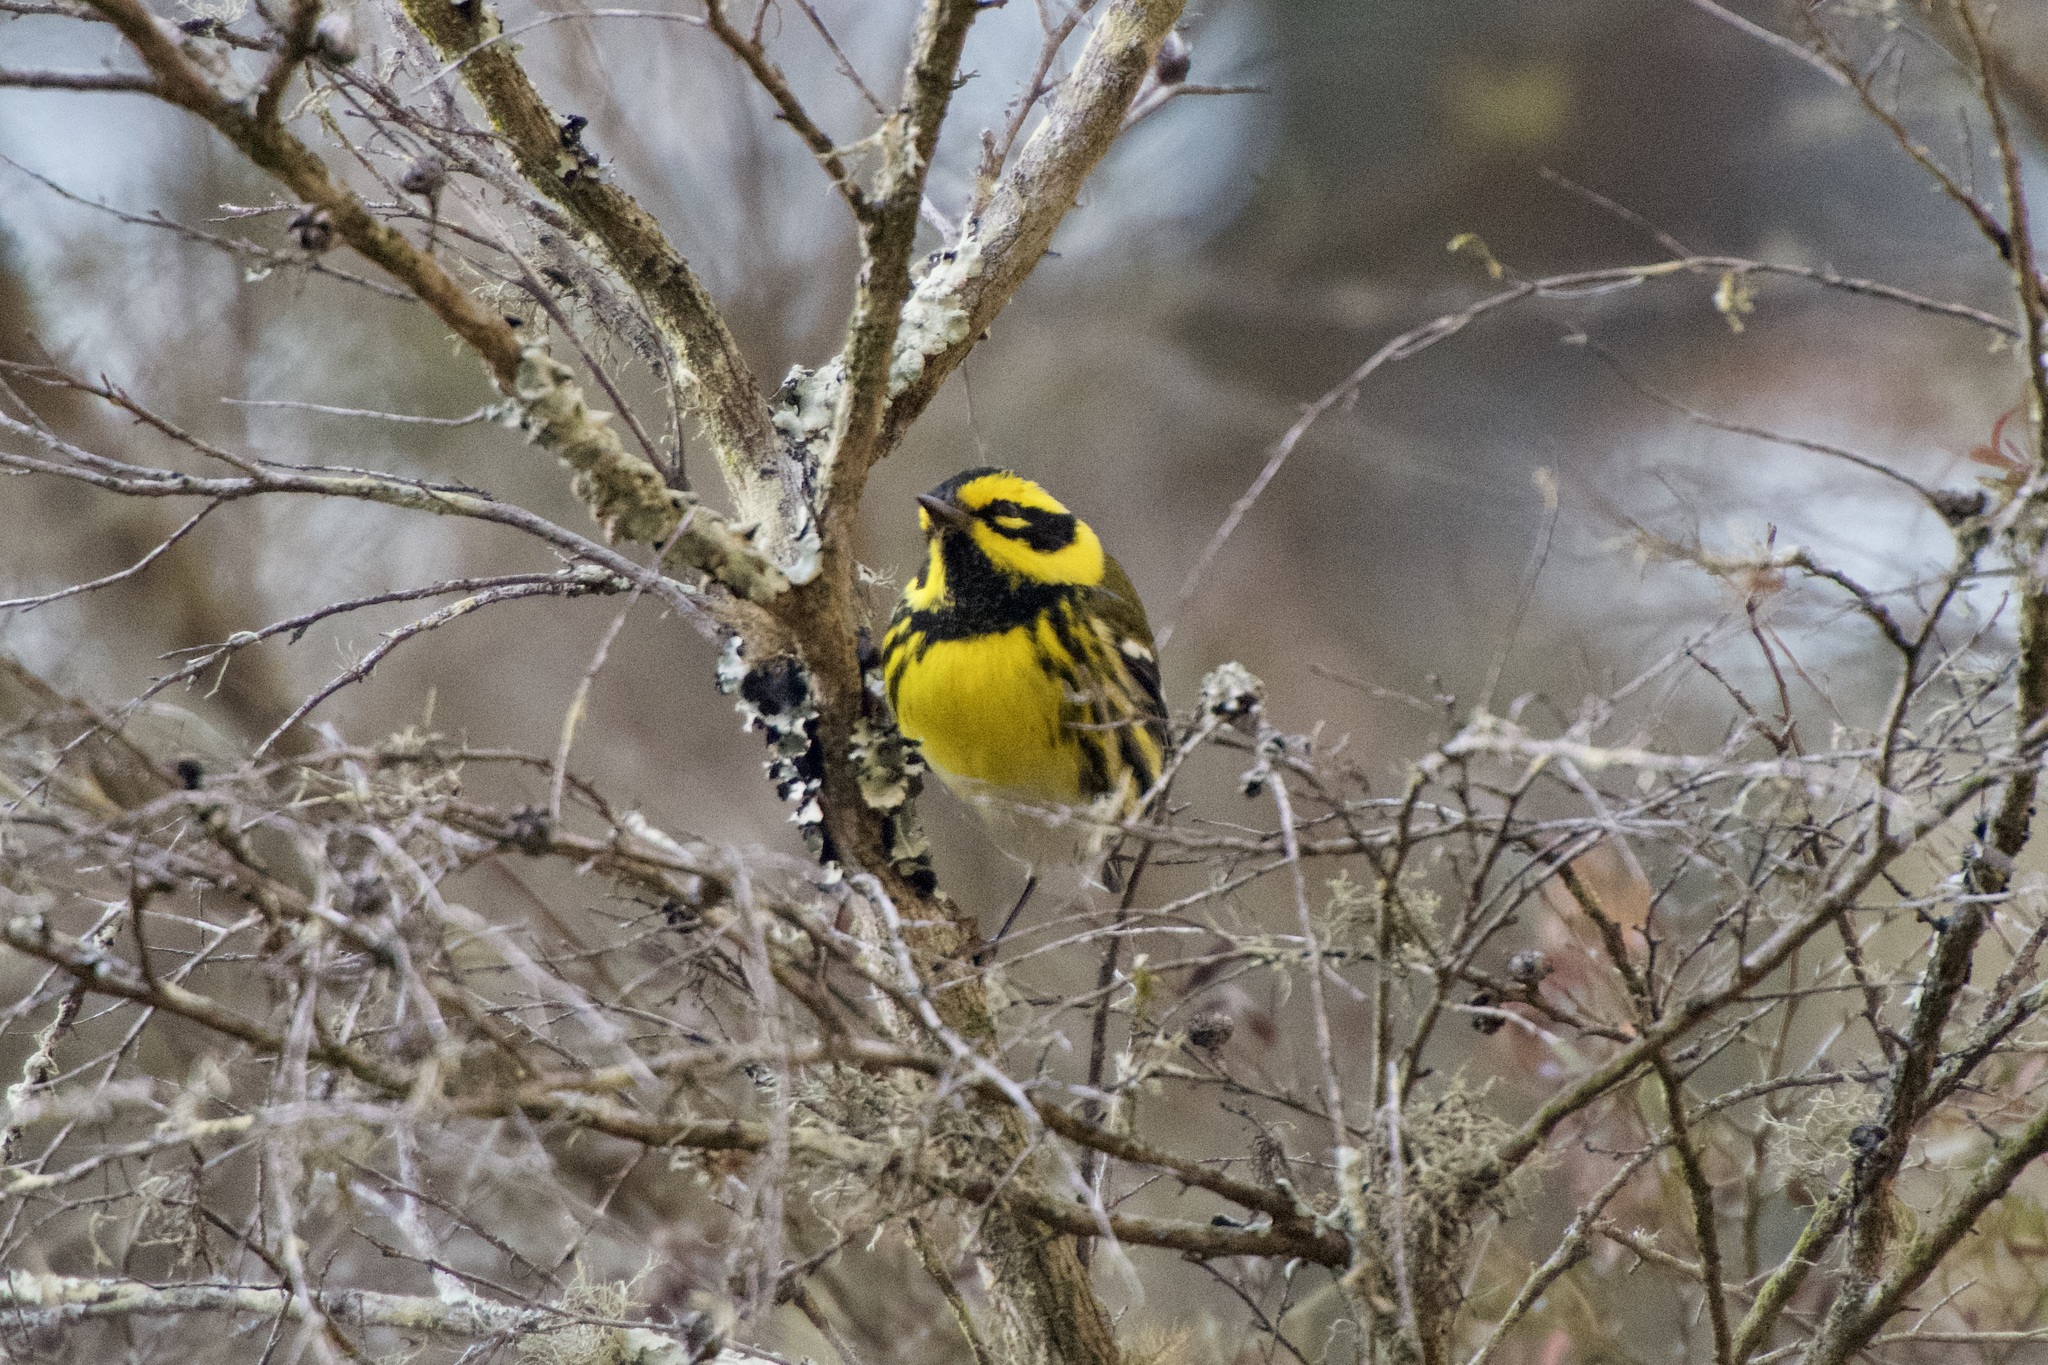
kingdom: Animalia
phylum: Chordata
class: Aves
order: Passeriformes
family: Parulidae
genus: Setophaga
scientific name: Setophaga townsendi
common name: Townsend's warbler
